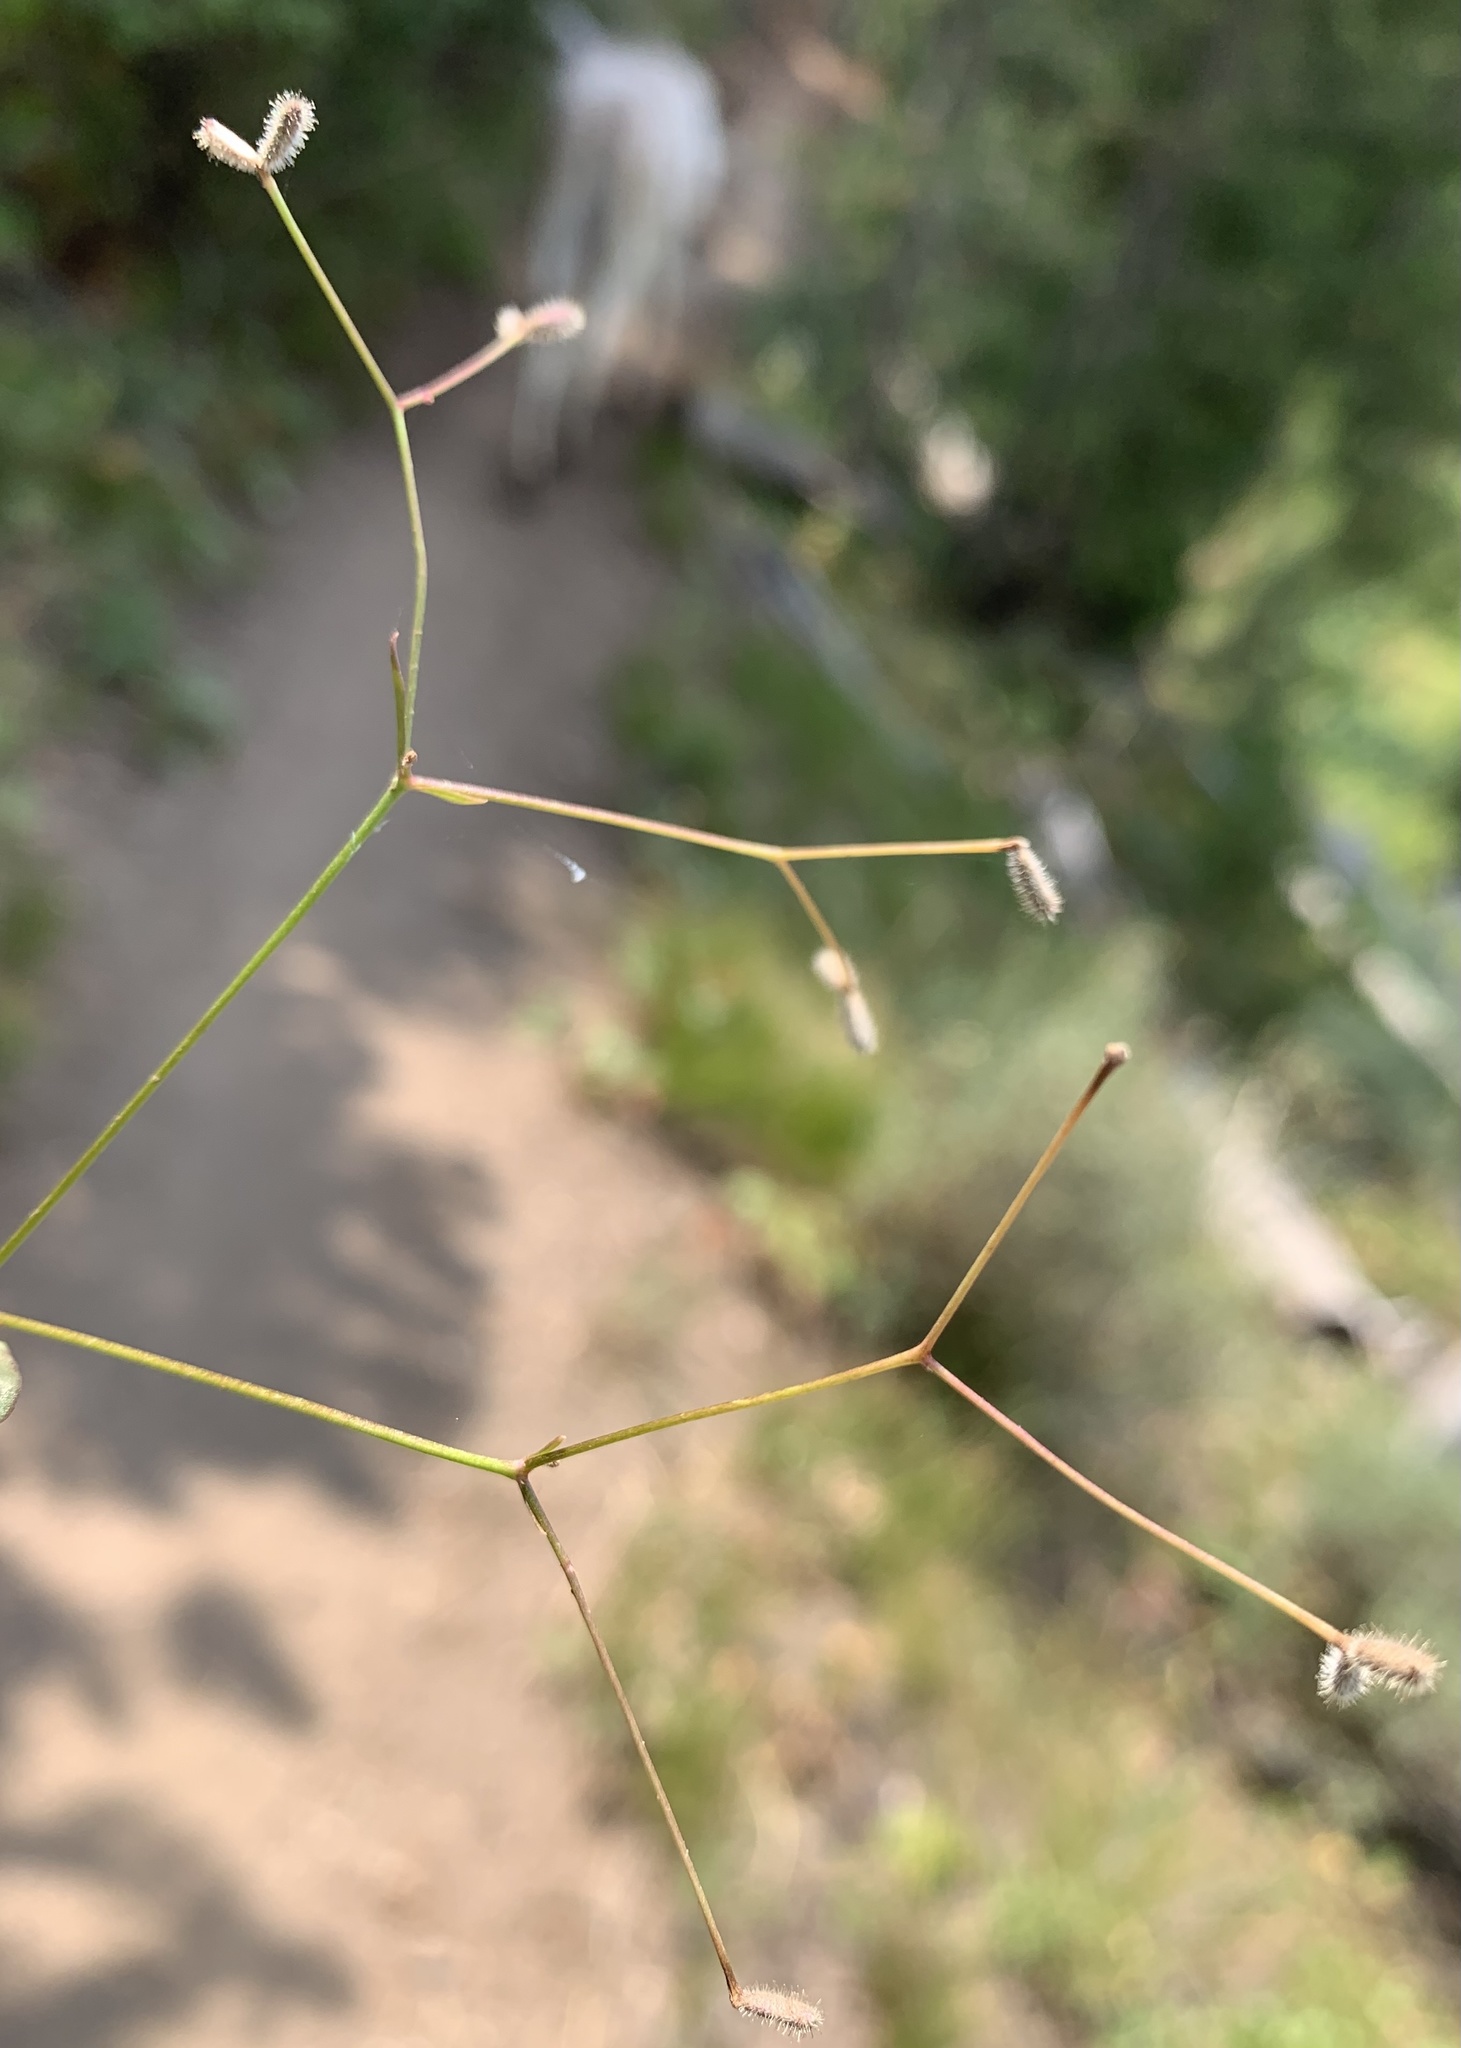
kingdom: Plantae
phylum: Tracheophyta
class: Magnoliopsida
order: Gentianales
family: Rubiaceae
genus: Kelloggia
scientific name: Kelloggia galioides
